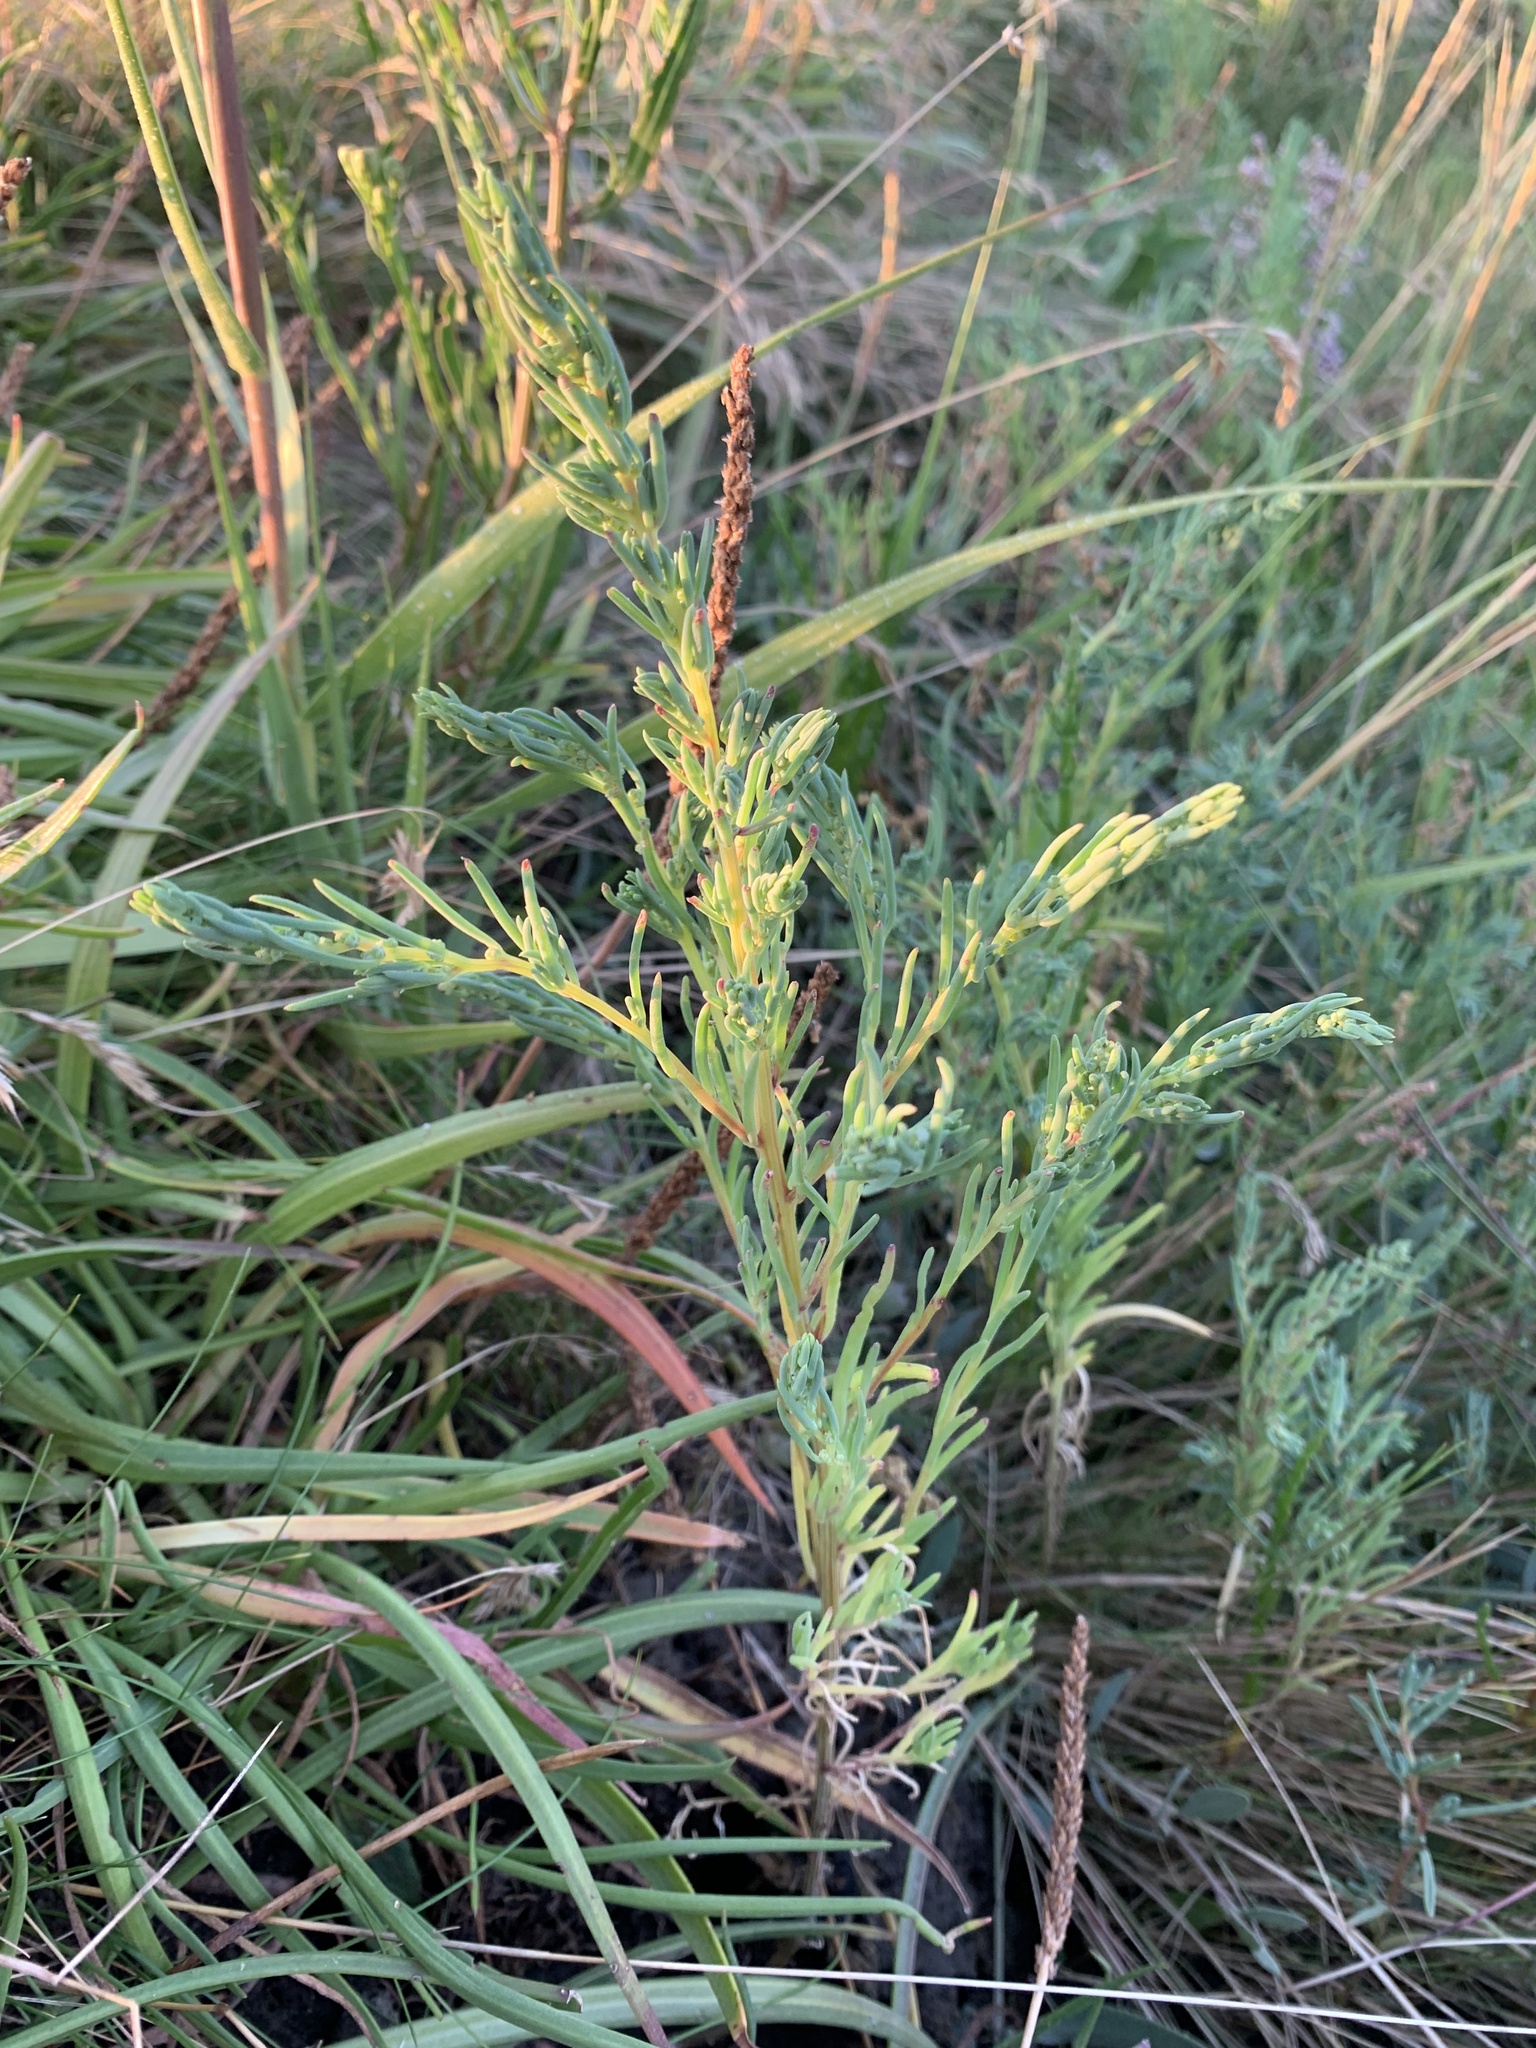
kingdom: Plantae
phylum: Tracheophyta
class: Magnoliopsida
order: Caryophyllales
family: Amaranthaceae
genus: Suaeda
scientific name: Suaeda maritima
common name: Annual sea-blite
